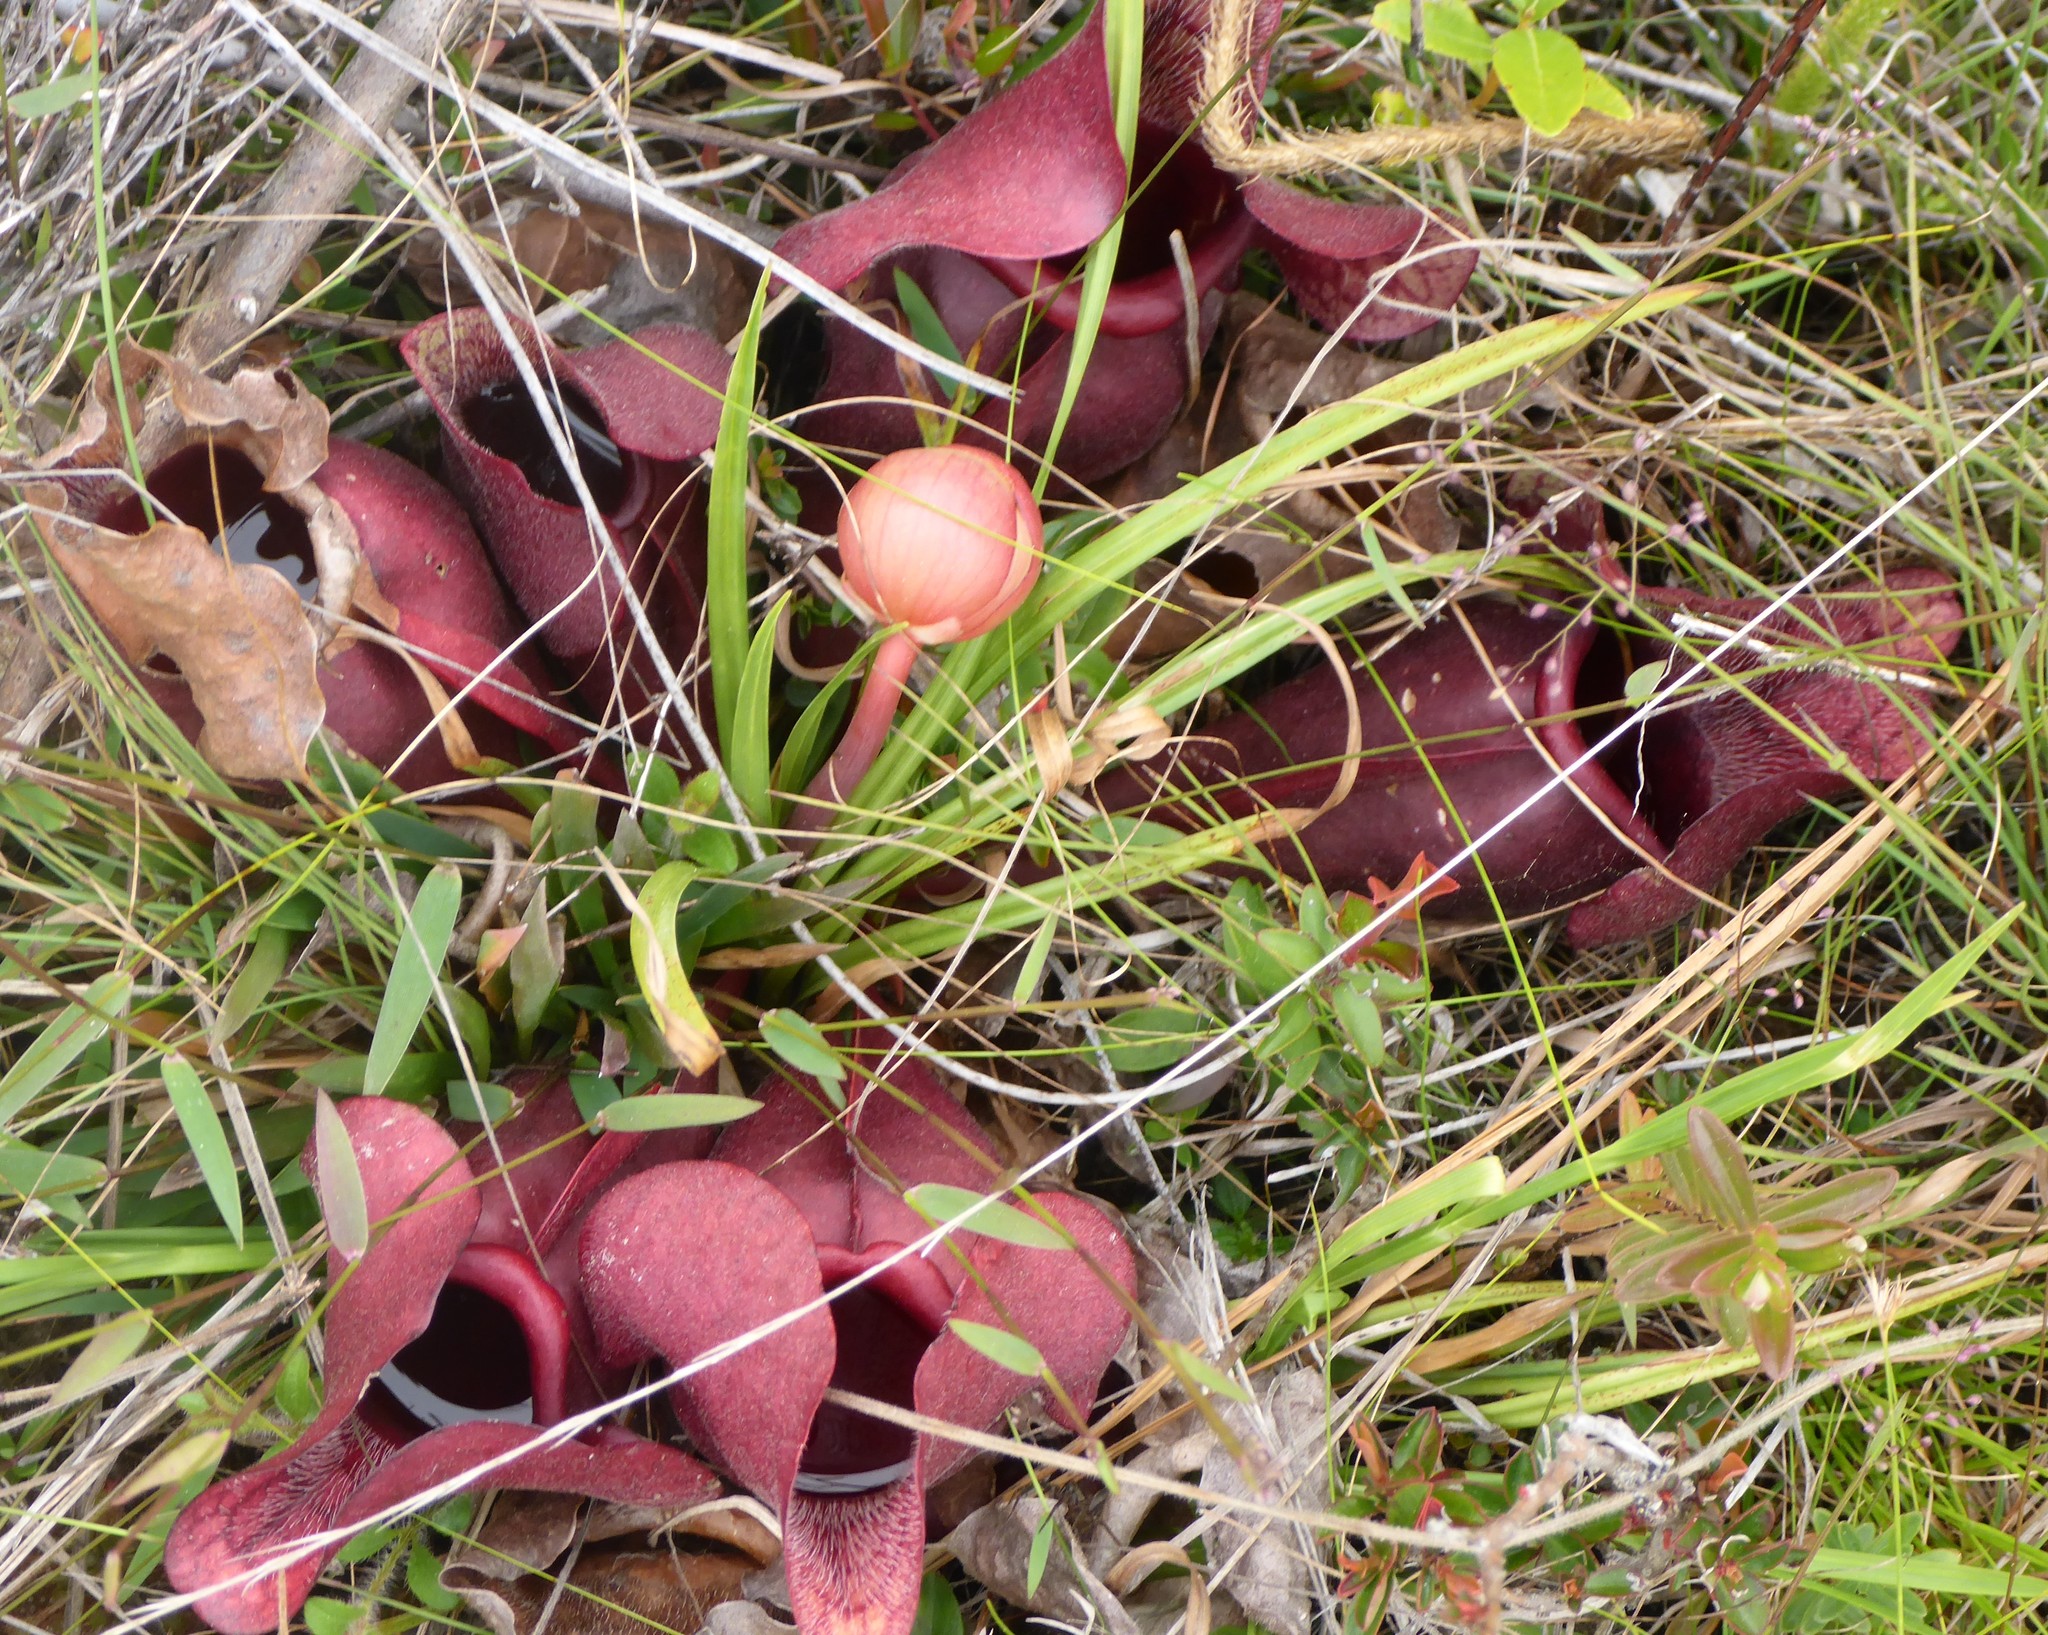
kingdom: Plantae
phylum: Tracheophyta
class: Magnoliopsida
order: Ericales
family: Sarraceniaceae
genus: Sarracenia
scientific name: Sarracenia rosea
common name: Pink pitcherplant
